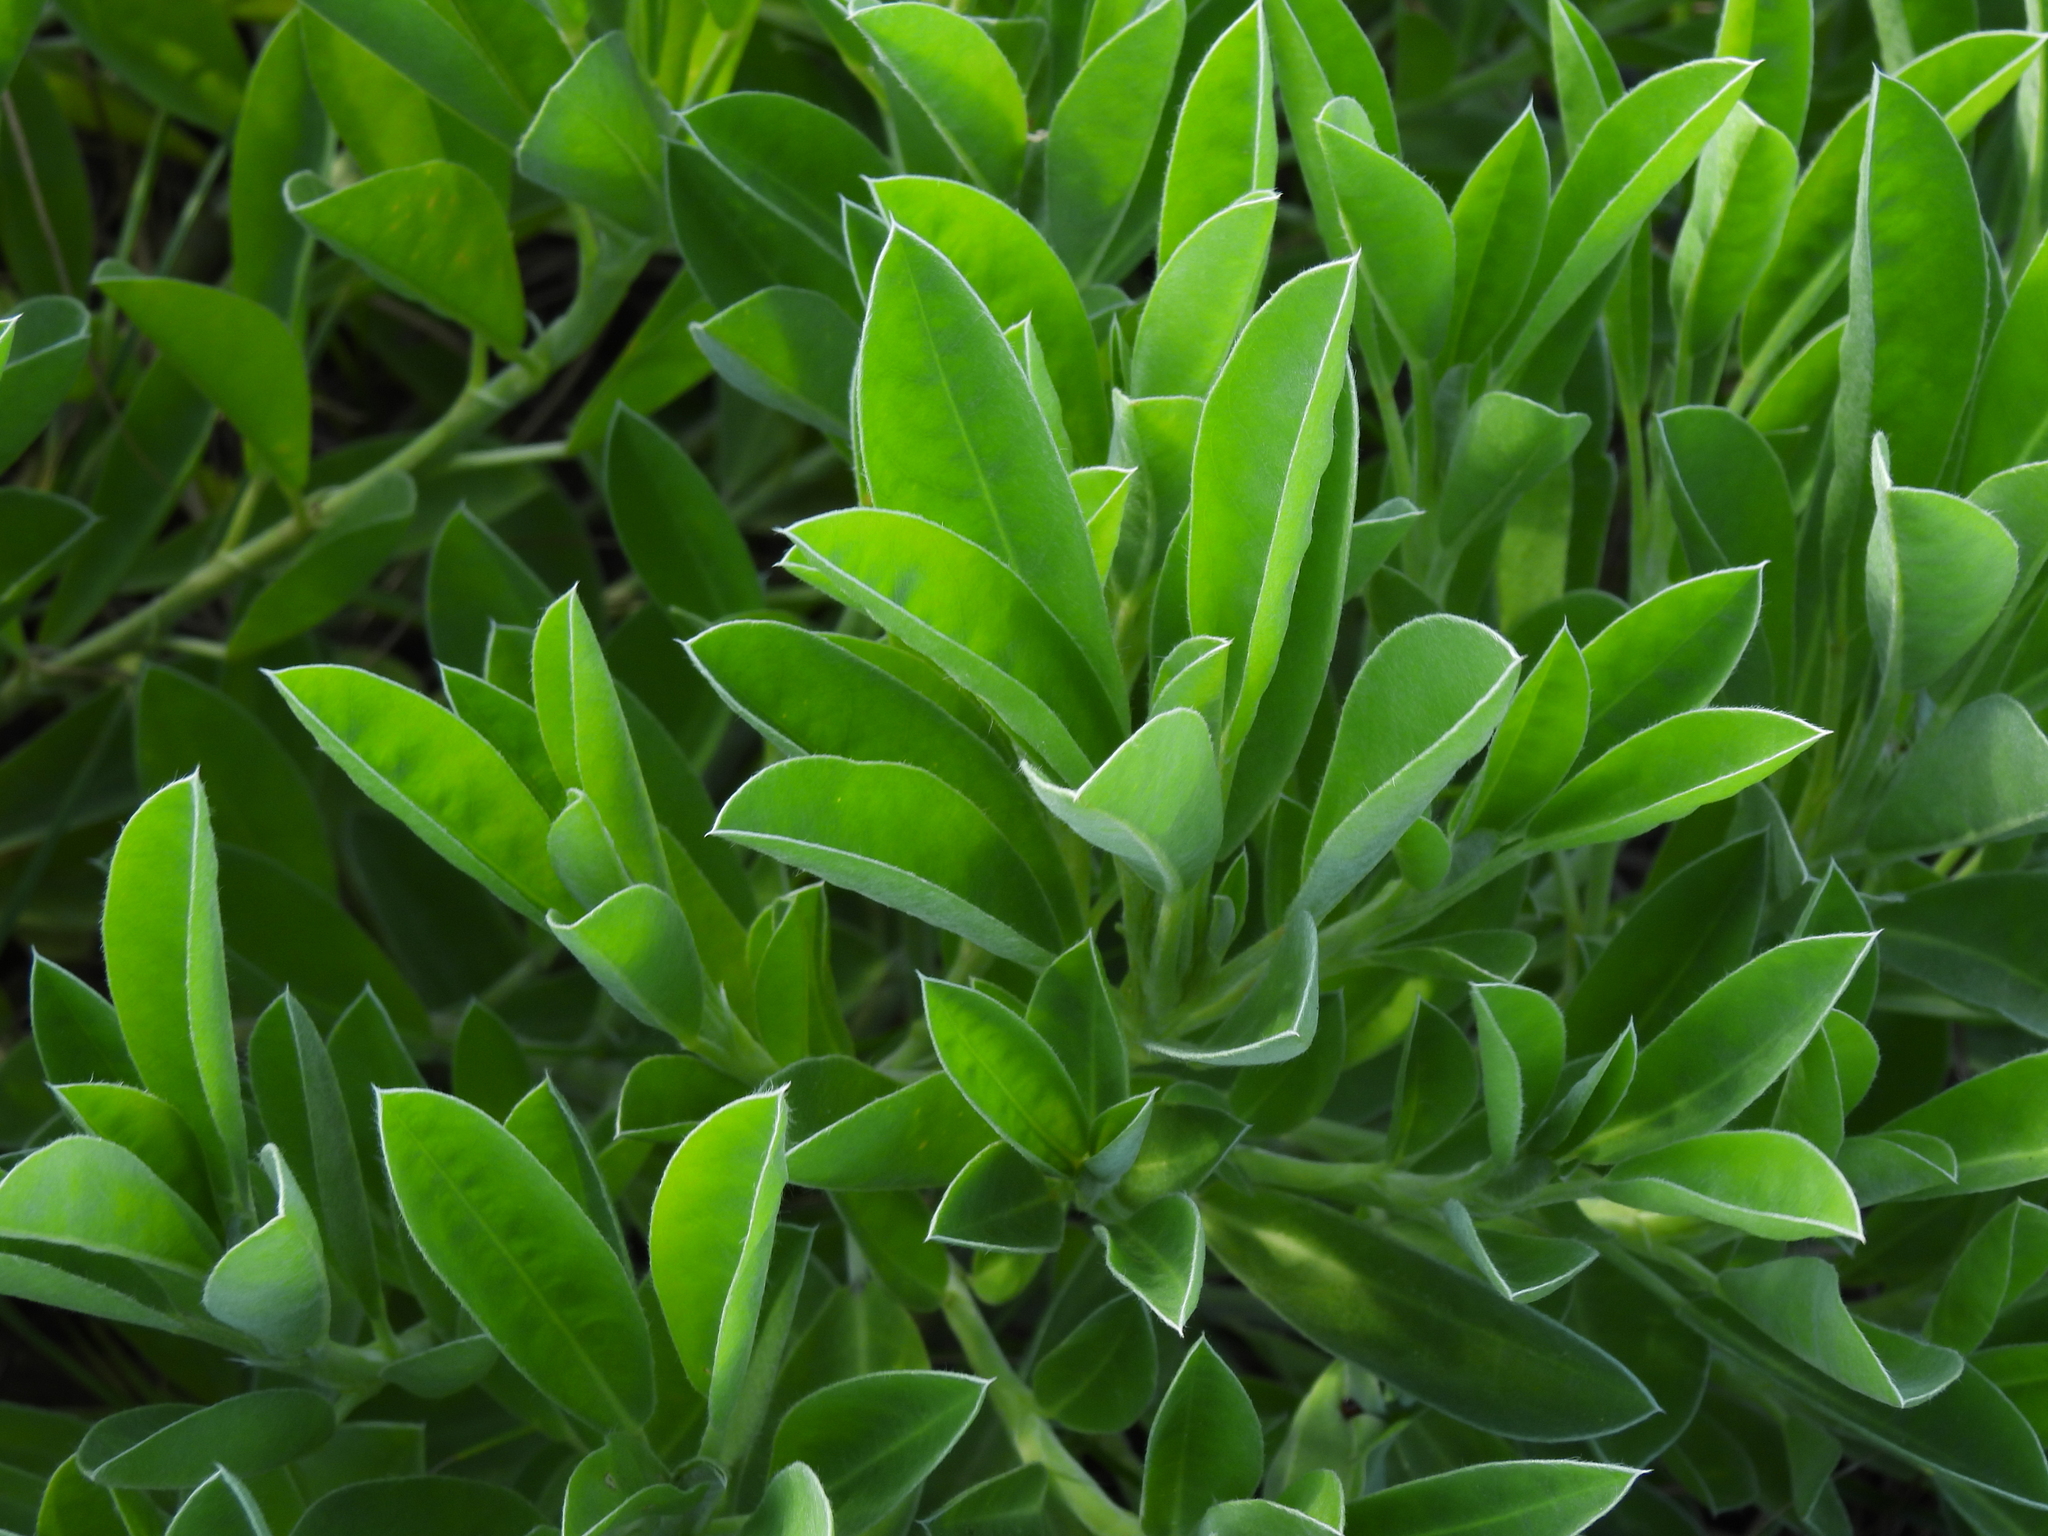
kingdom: Plantae
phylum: Tracheophyta
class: Magnoliopsida
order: Fabales
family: Fabaceae
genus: Lupinus
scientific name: Lupinus
